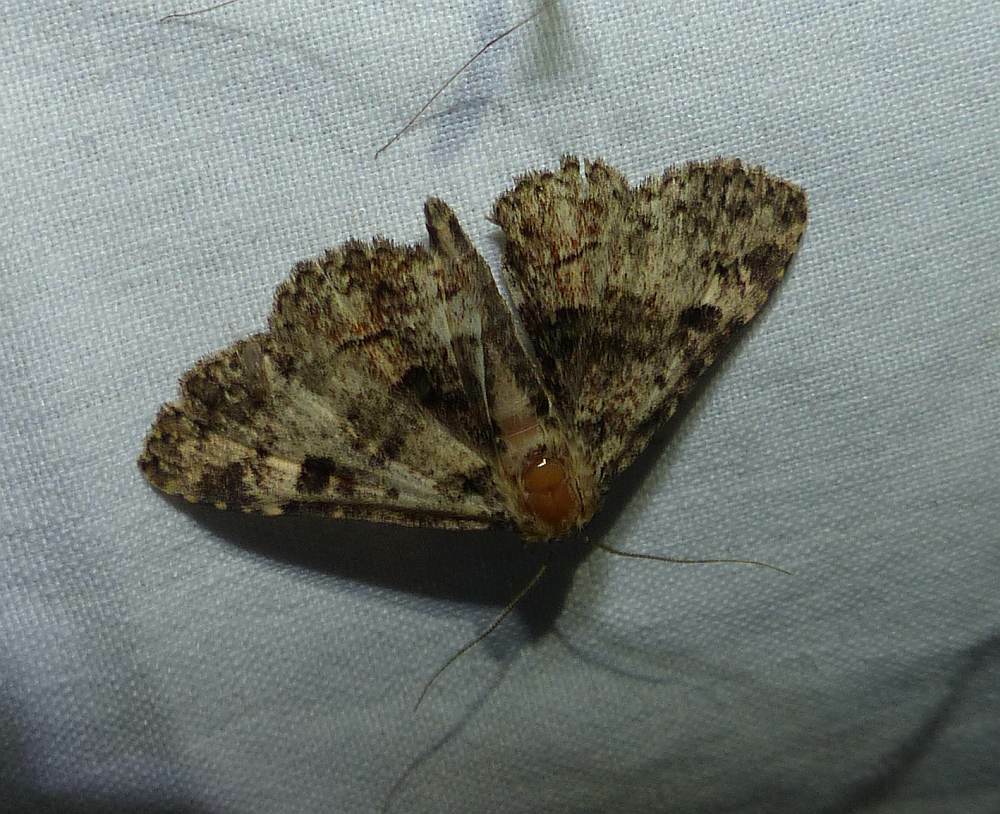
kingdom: Animalia
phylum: Arthropoda
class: Insecta
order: Lepidoptera
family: Erebidae
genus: Metalectra
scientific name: Metalectra discalis
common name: Common fungus moth
